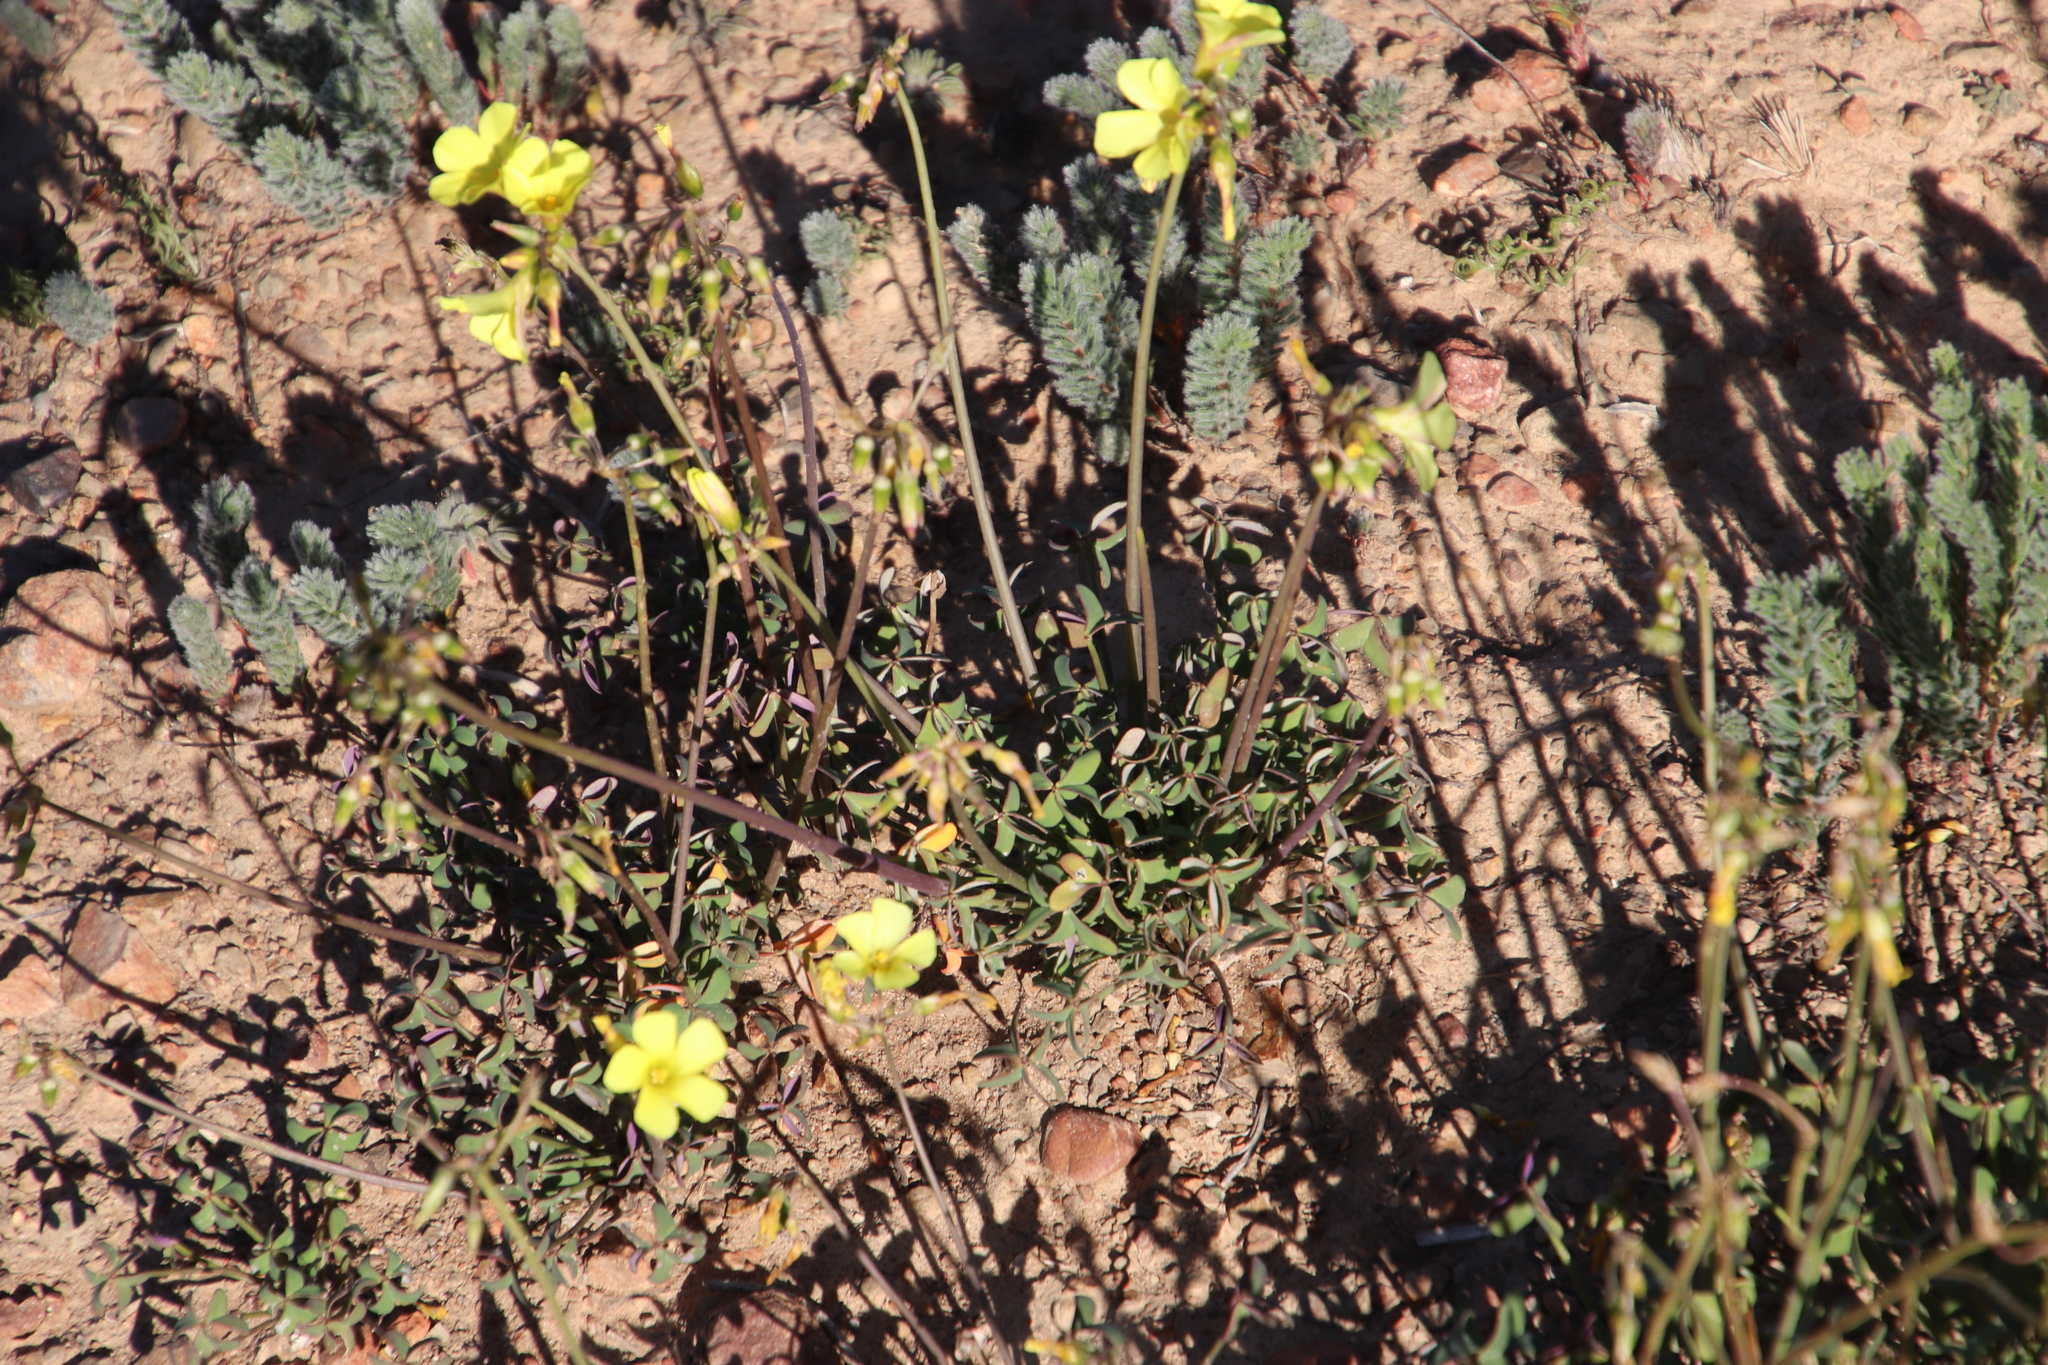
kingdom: Plantae
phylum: Tracheophyta
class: Magnoliopsida
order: Oxalidales
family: Oxalidaceae
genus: Oxalis
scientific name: Oxalis pes-caprae
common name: Bermuda-buttercup
